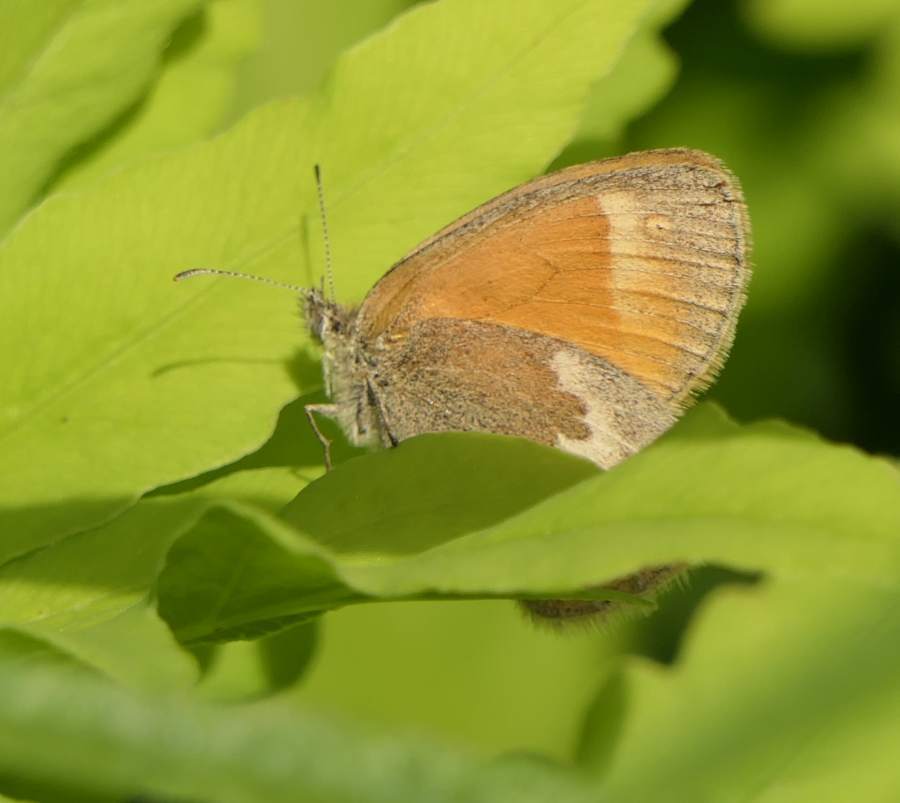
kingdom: Animalia
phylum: Arthropoda
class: Insecta
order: Lepidoptera
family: Nymphalidae
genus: Coenonympha
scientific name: Coenonympha california
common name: Common ringlet
